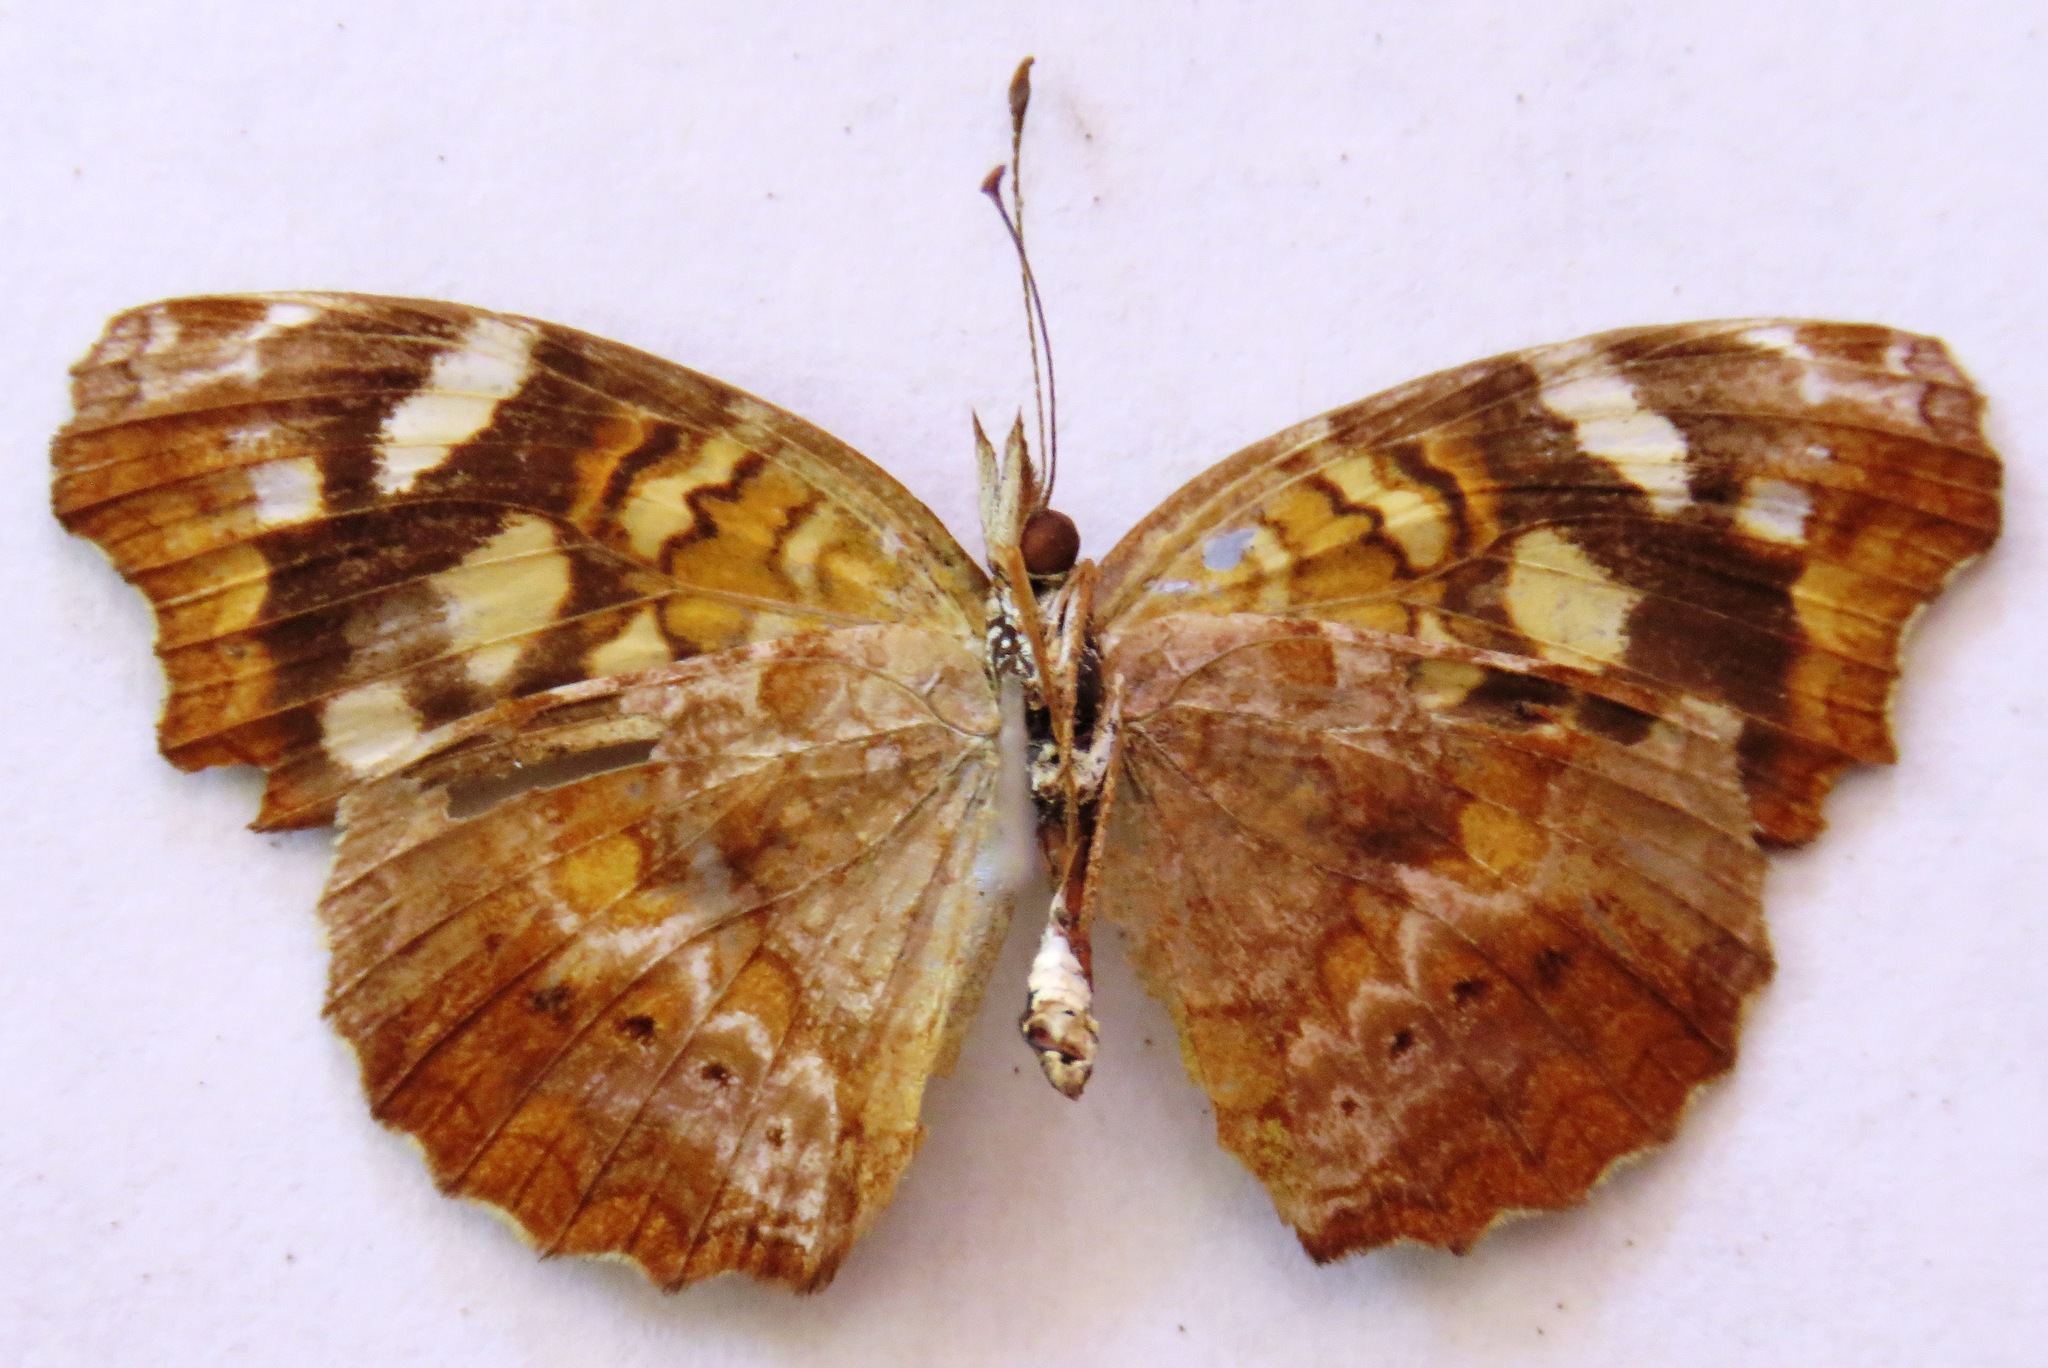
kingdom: Animalia
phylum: Arthropoda
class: Insecta
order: Lepidoptera
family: Nymphalidae
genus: Anthanassa
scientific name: Anthanassa ardys
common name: Ardys crescent
